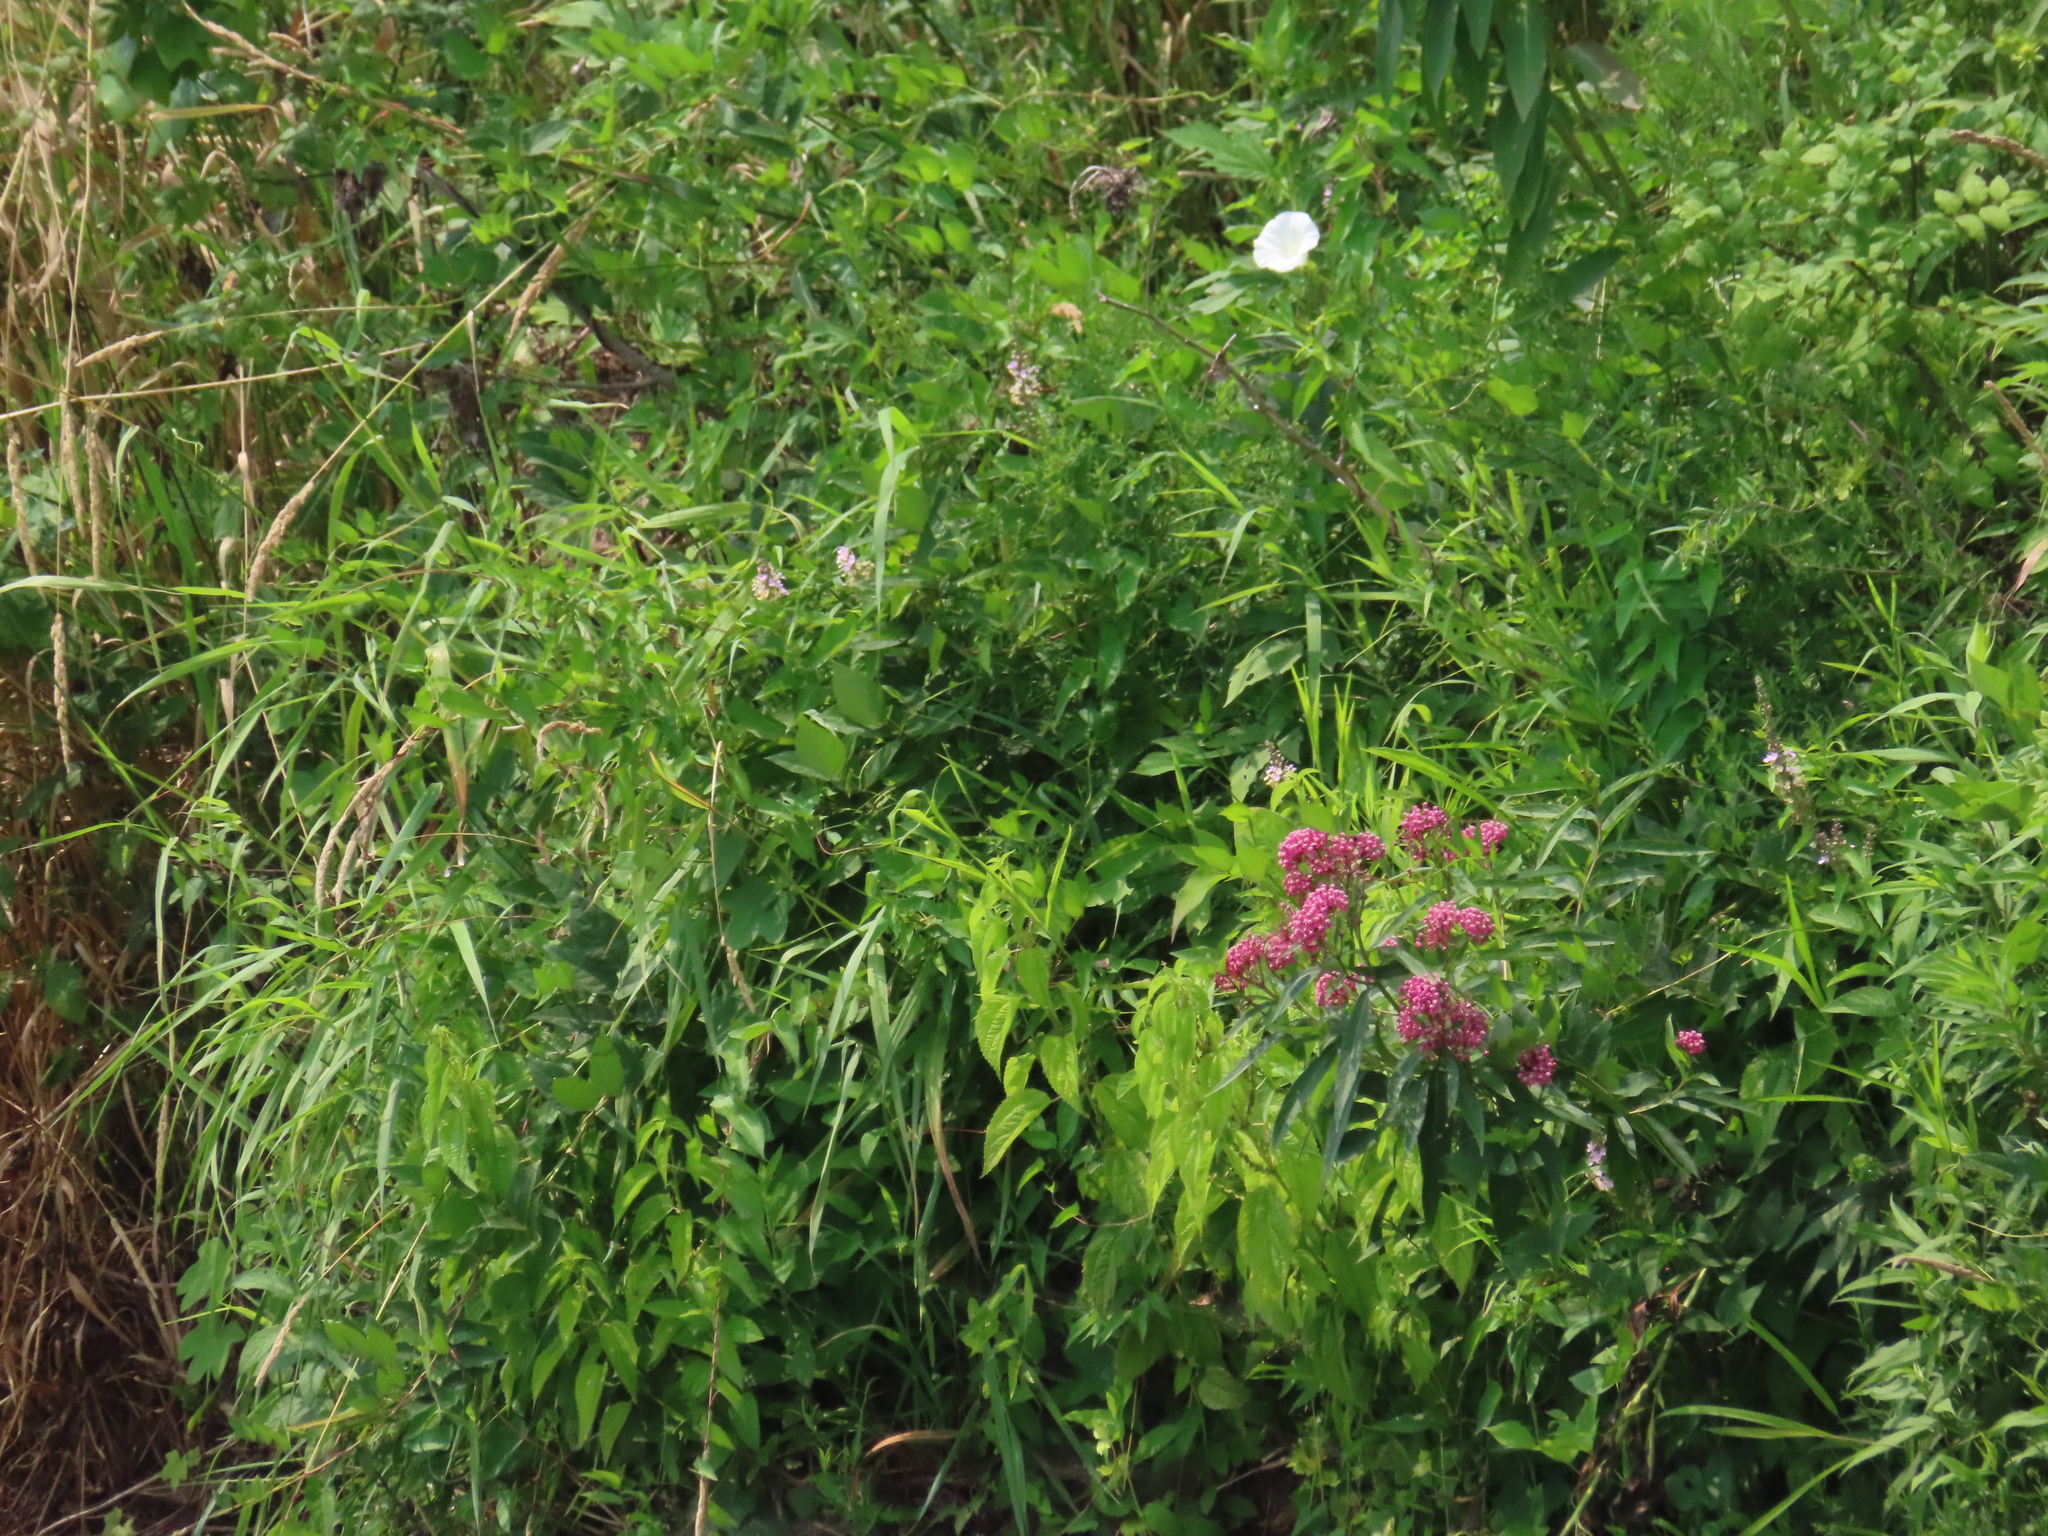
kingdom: Plantae
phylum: Tracheophyta
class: Magnoliopsida
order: Gentianales
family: Apocynaceae
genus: Asclepias
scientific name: Asclepias incarnata
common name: Swamp milkweed
